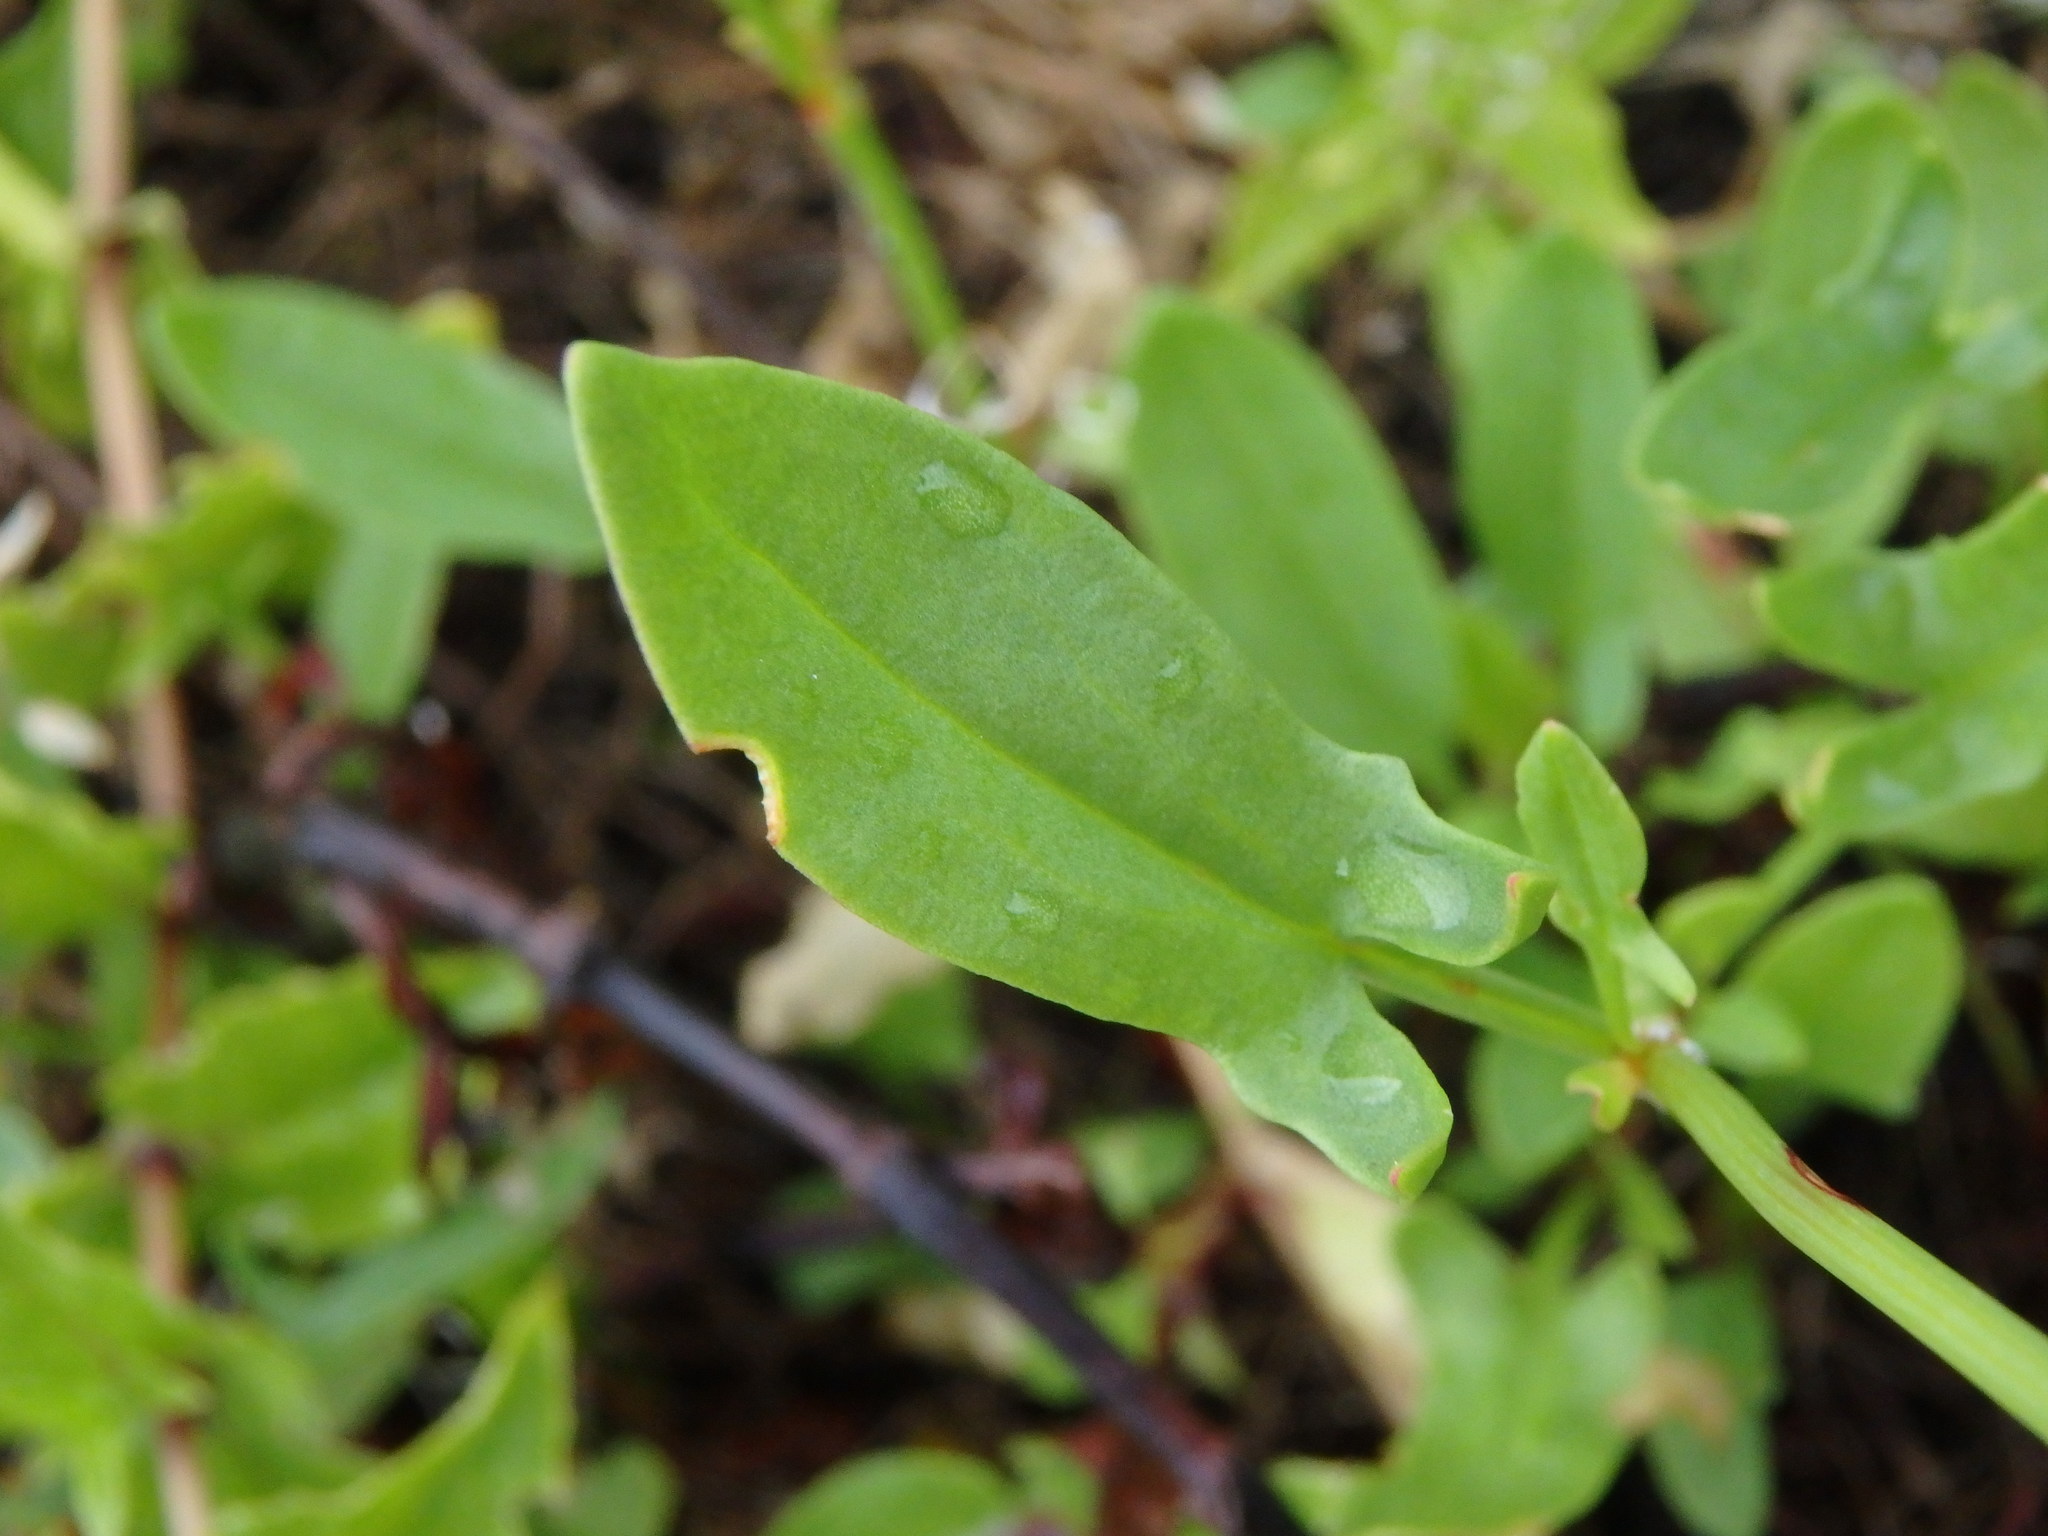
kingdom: Plantae
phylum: Tracheophyta
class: Magnoliopsida
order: Caryophyllales
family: Polygonaceae
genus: Rumex
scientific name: Rumex acetosella
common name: Common sheep sorrel
